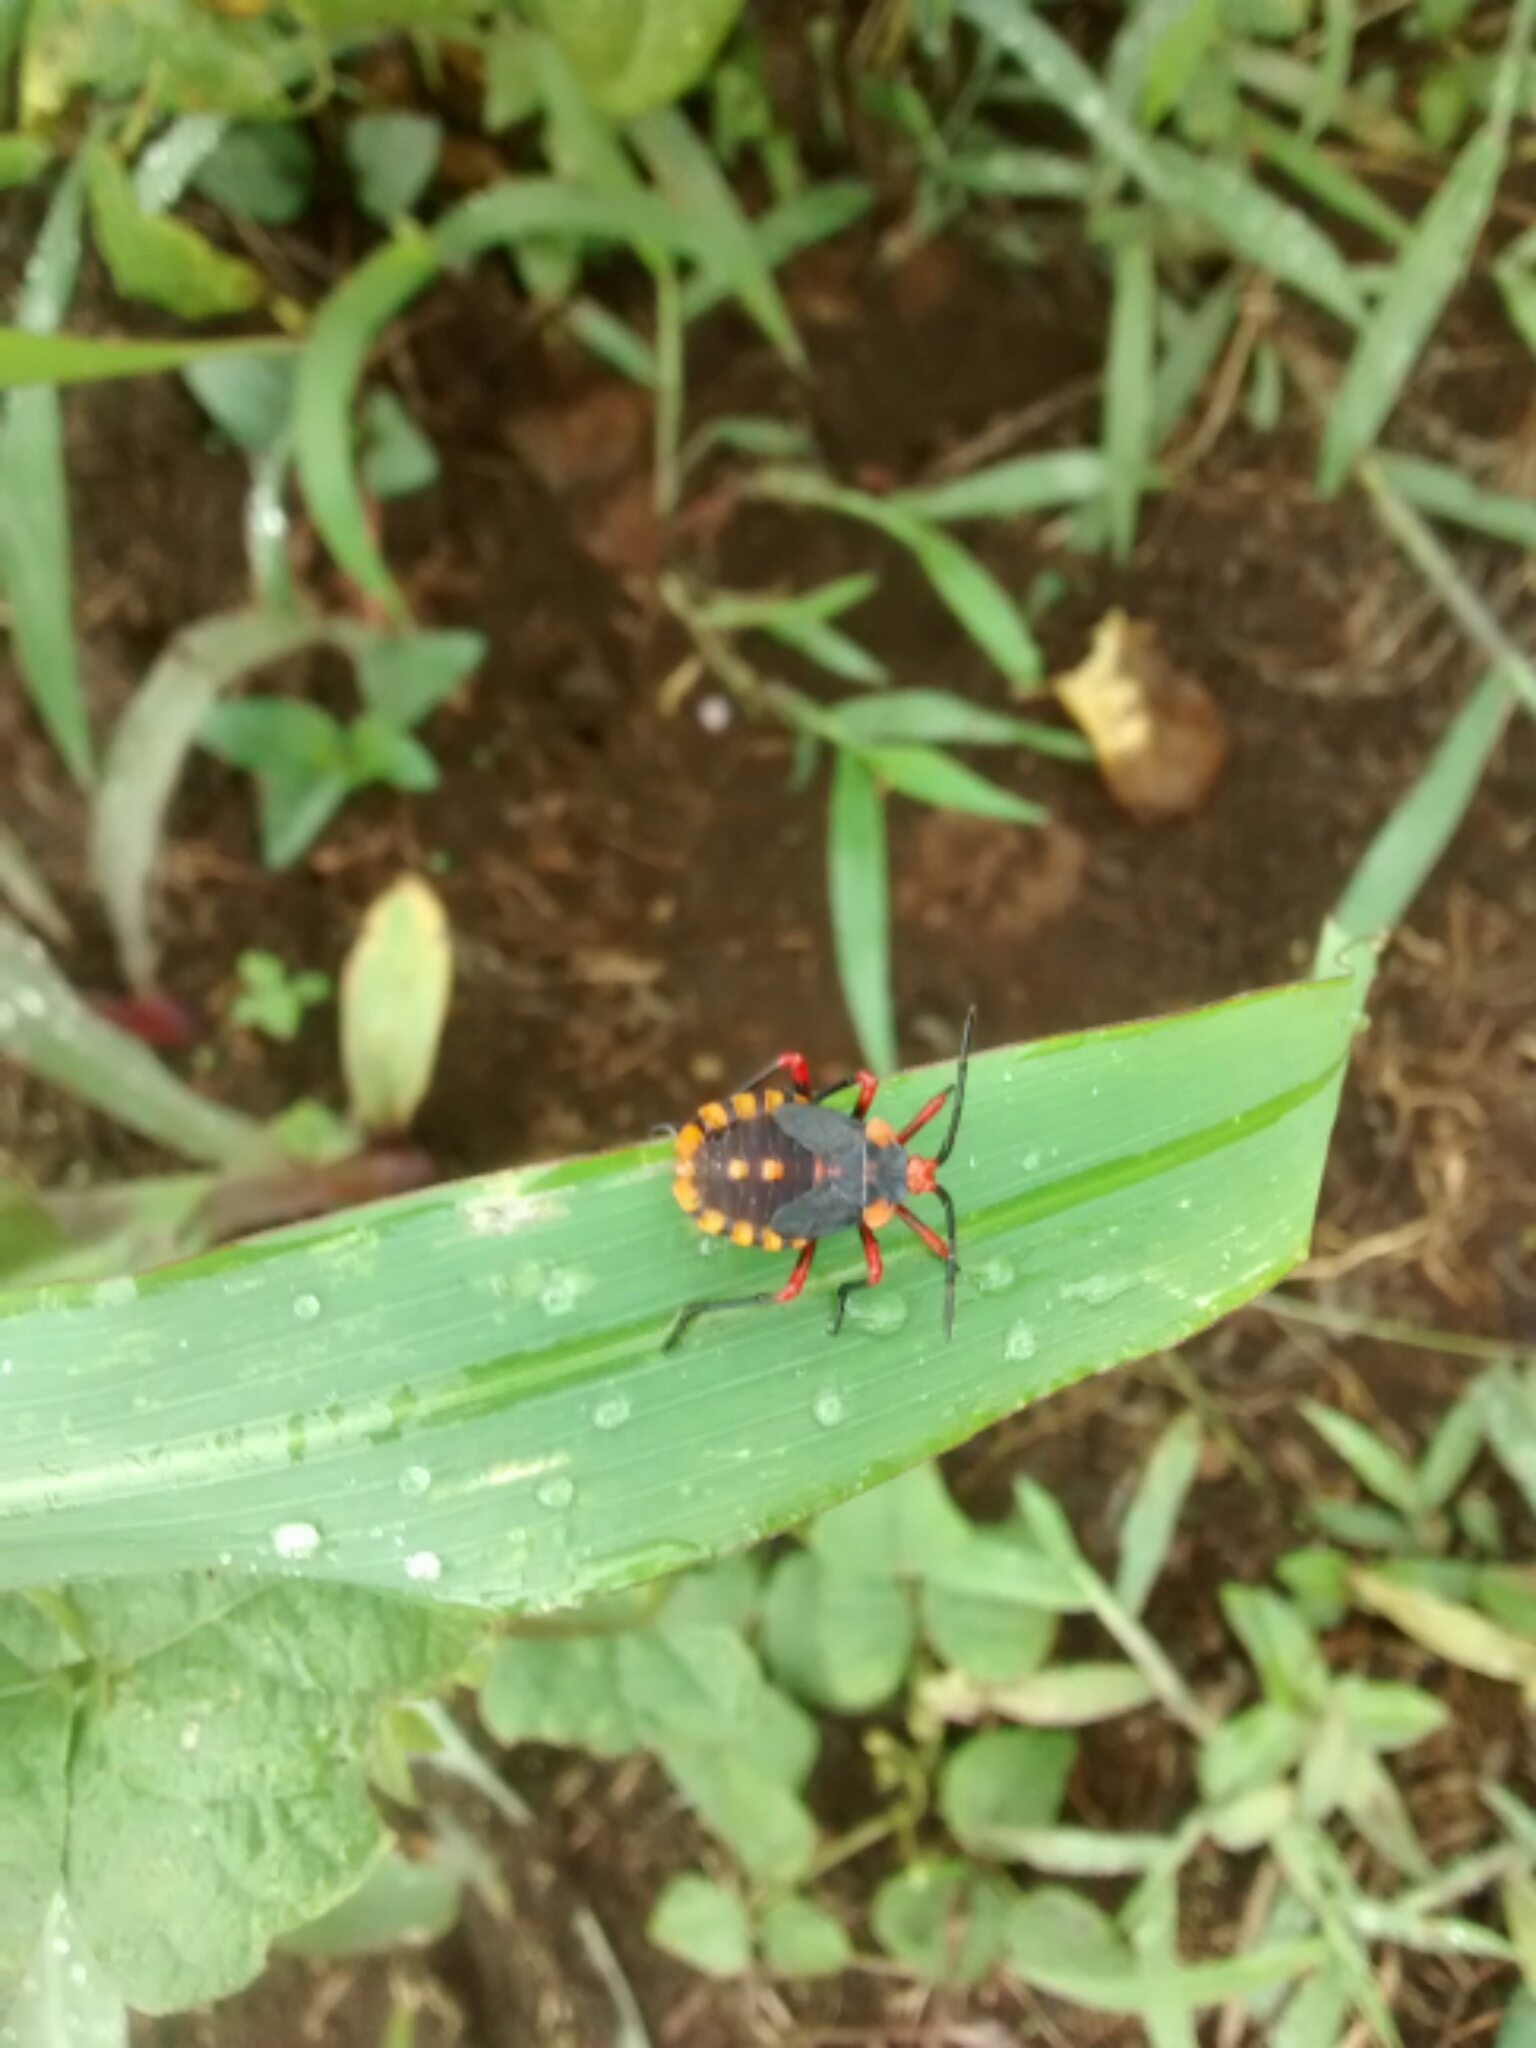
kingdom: Animalia
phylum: Arthropoda
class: Insecta
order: Hemiptera
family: Coreidae
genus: Spartocera
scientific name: Spartocera fusca
